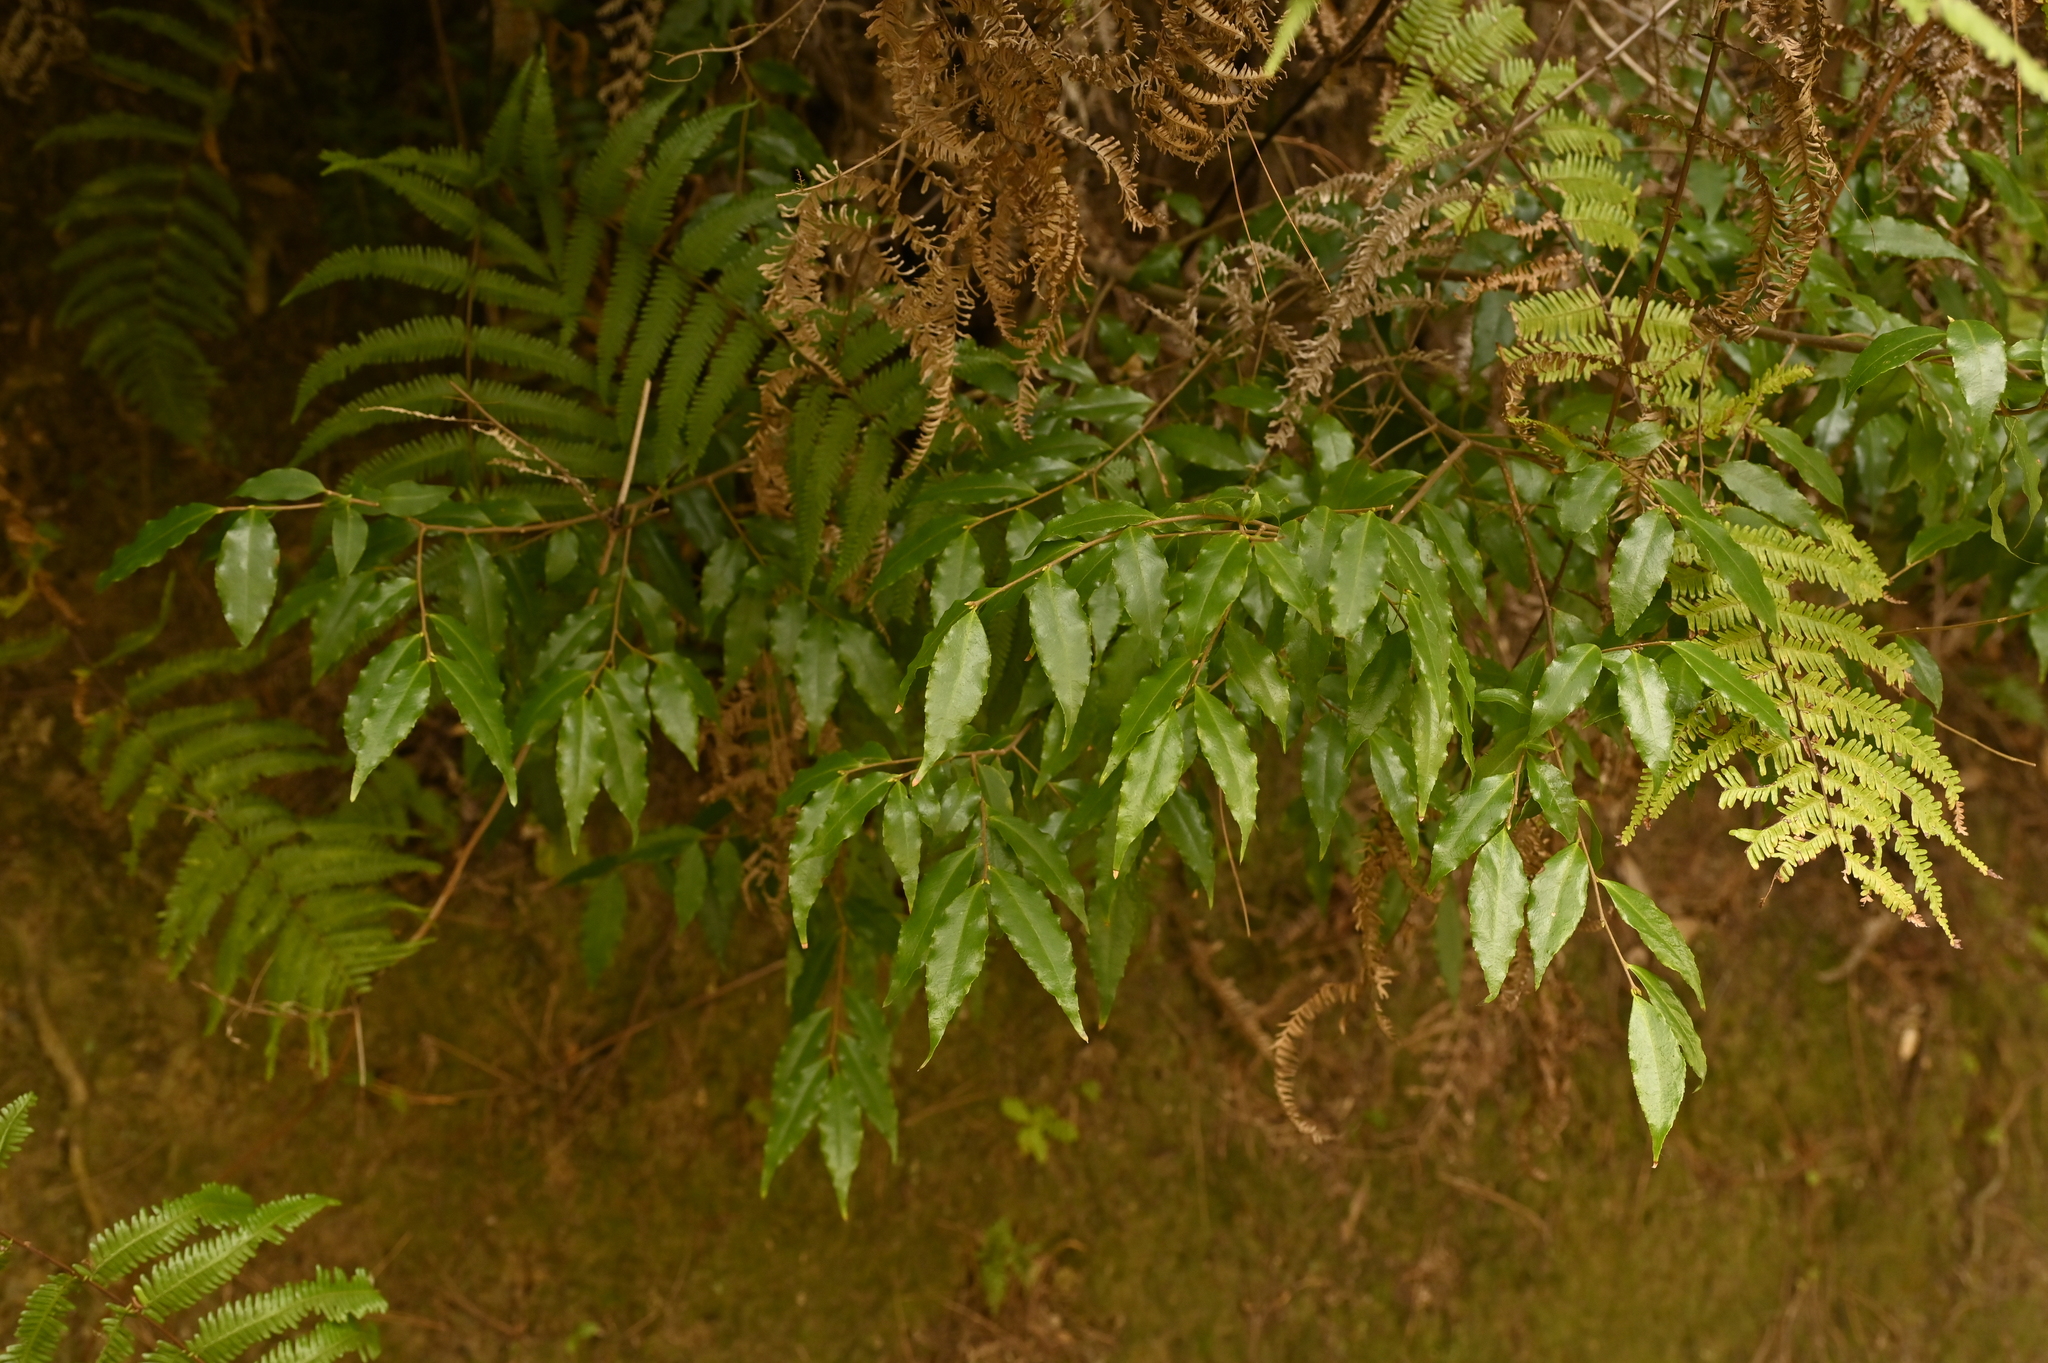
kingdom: Plantae
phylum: Tracheophyta
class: Magnoliopsida
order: Rosales
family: Rosaceae
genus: Prunus
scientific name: Prunus spinulosa
